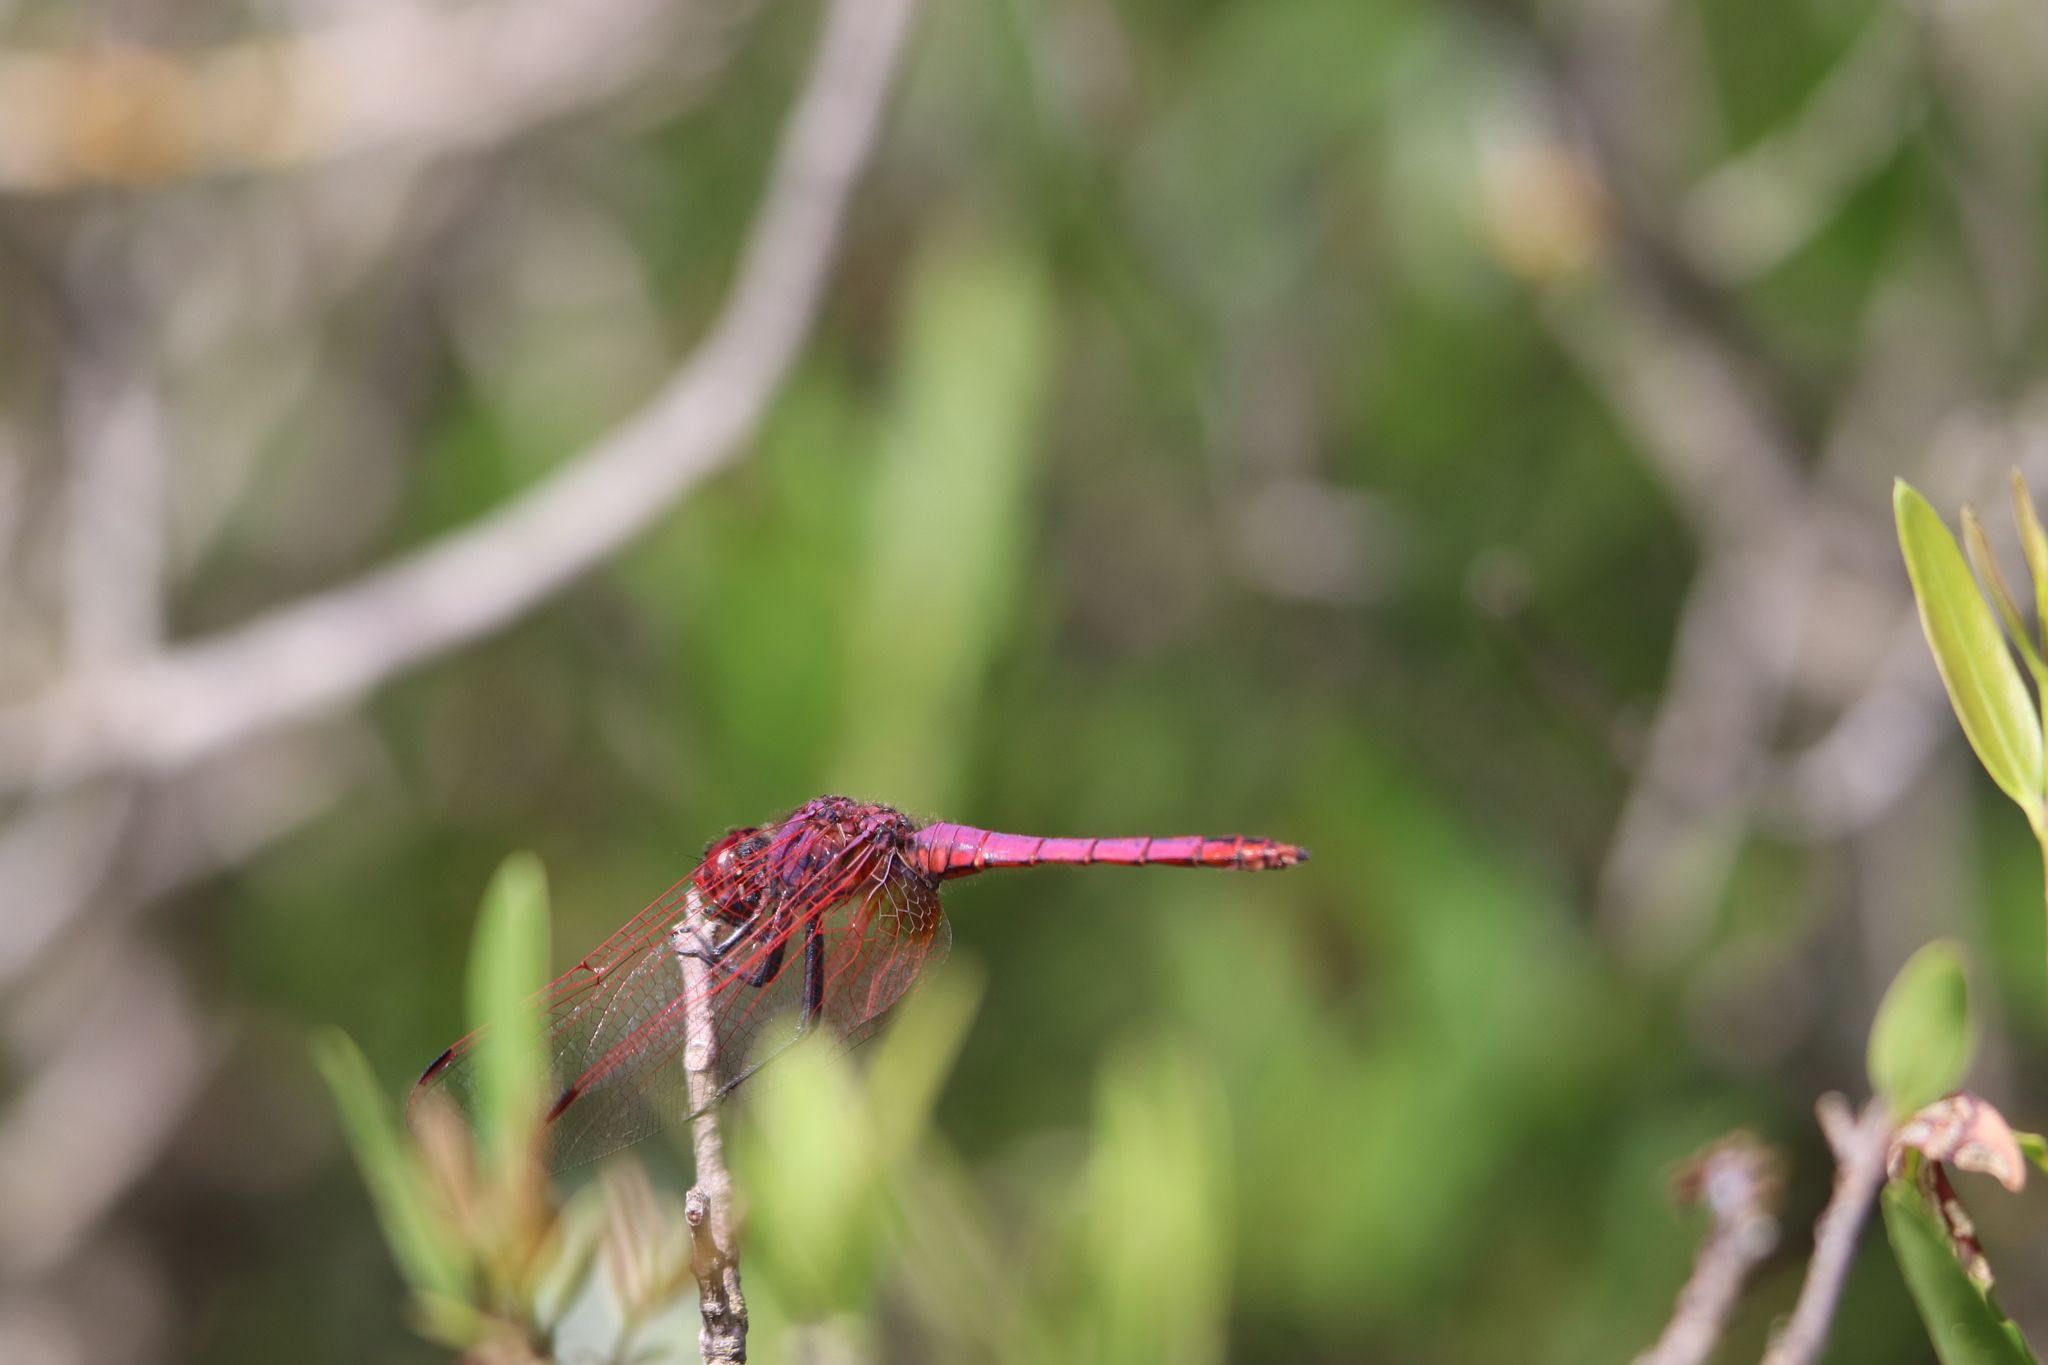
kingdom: Animalia
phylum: Arthropoda
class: Insecta
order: Odonata
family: Libellulidae
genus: Trithemis
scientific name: Trithemis annulata
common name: Violet dropwing
